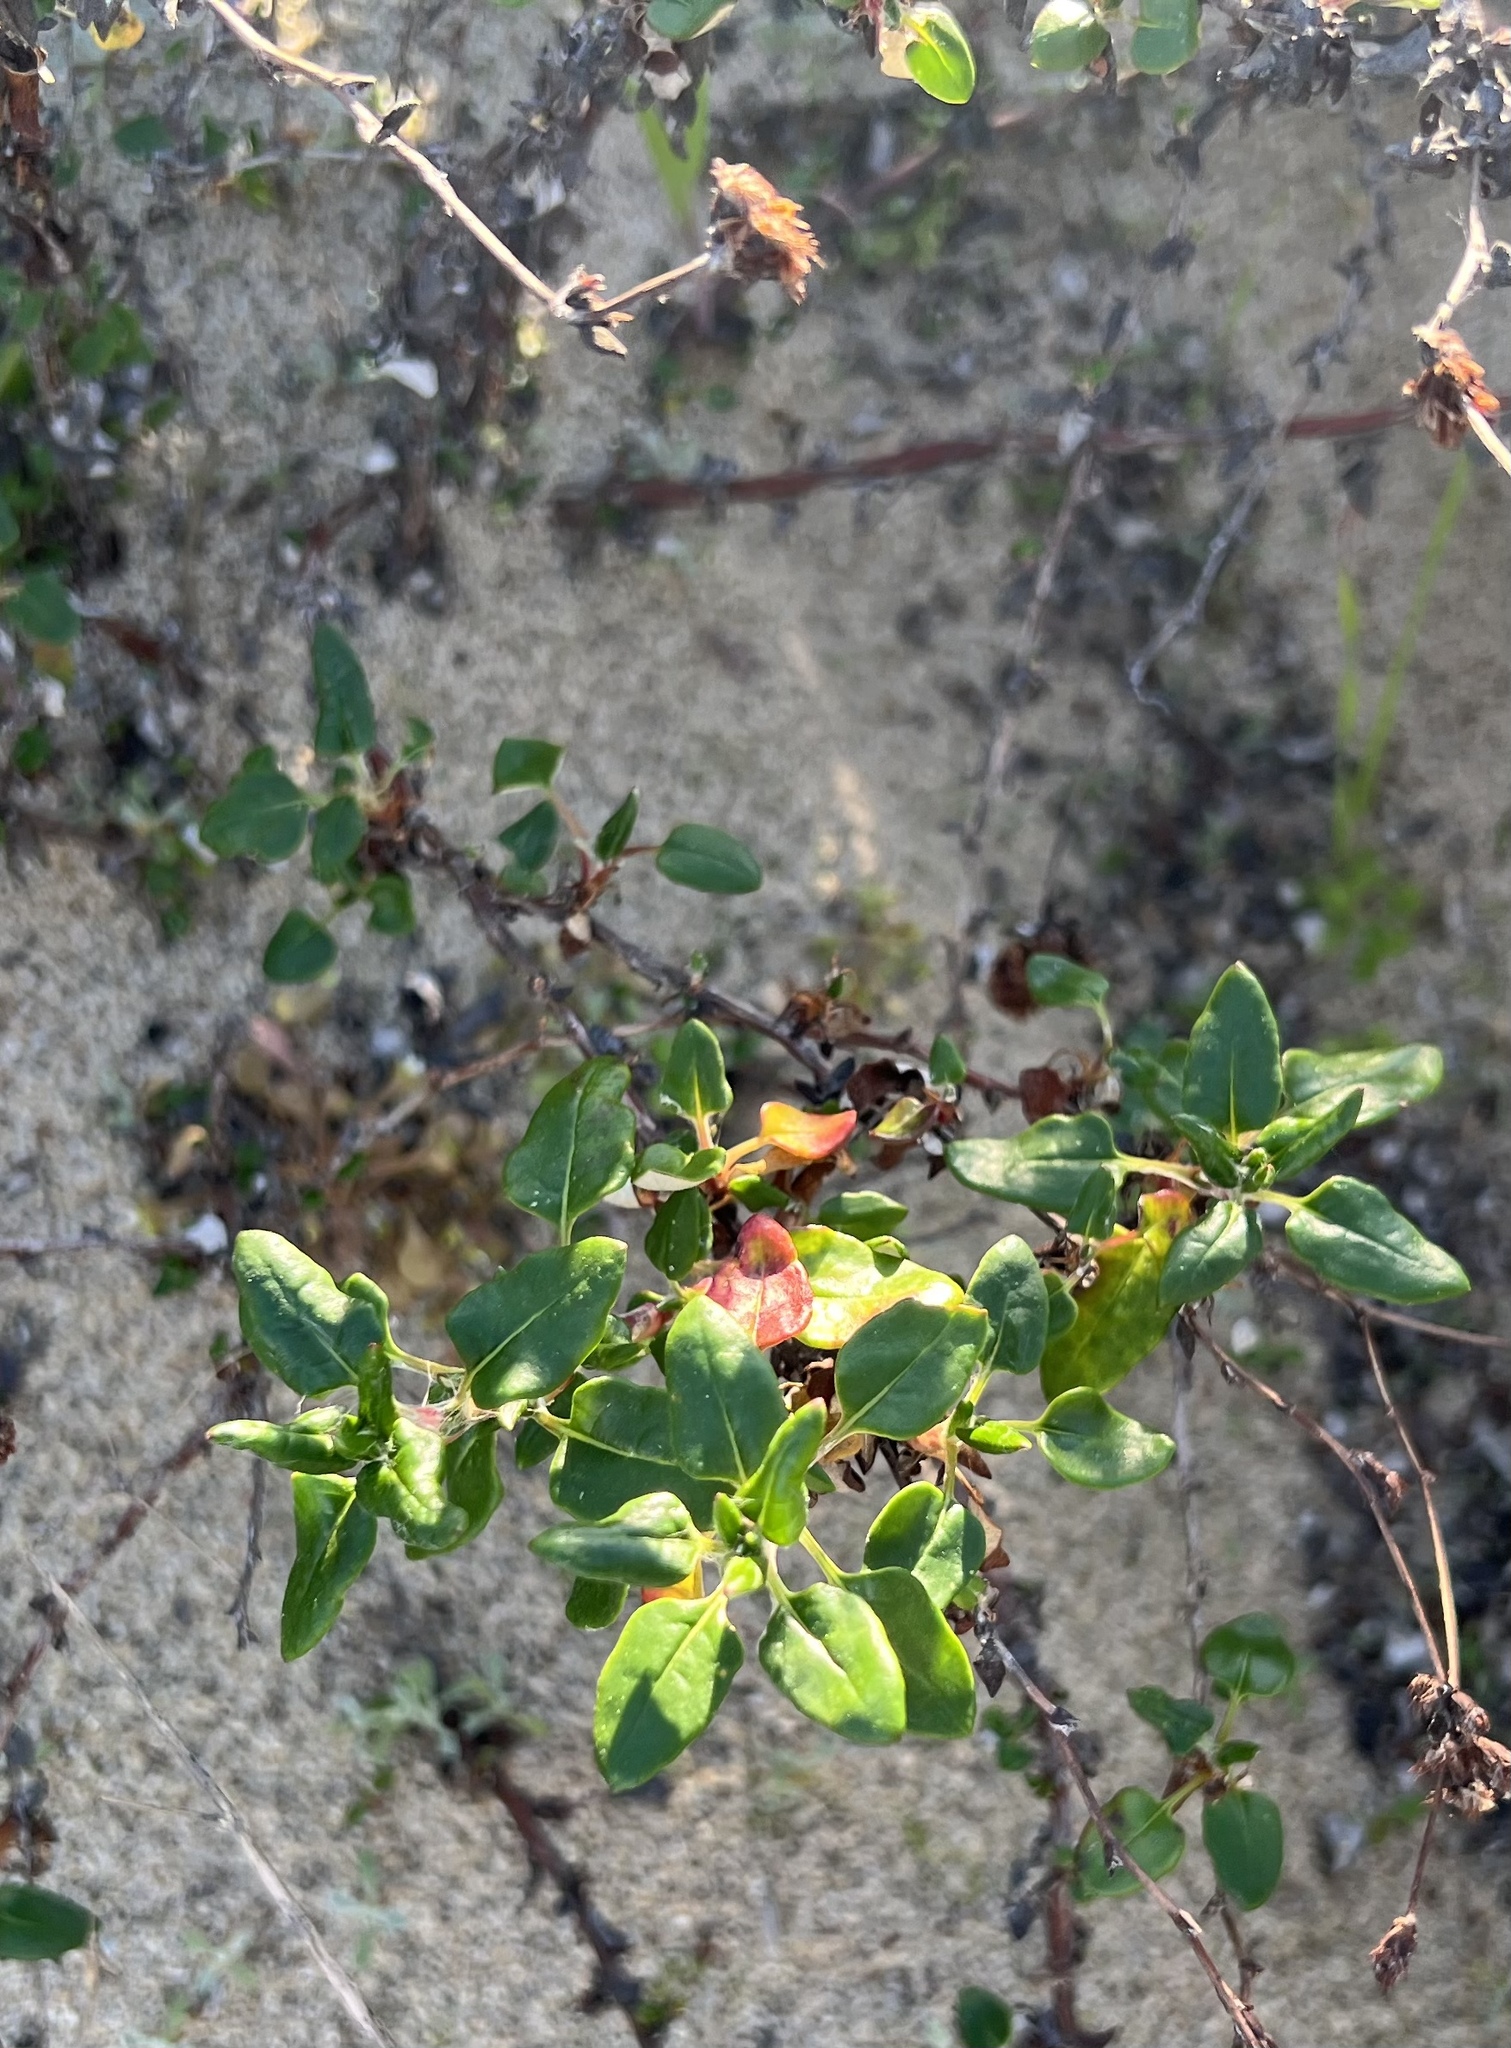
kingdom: Plantae
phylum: Tracheophyta
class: Magnoliopsida
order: Caryophyllales
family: Polygonaceae
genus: Eriogonum
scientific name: Eriogonum parvifolium
